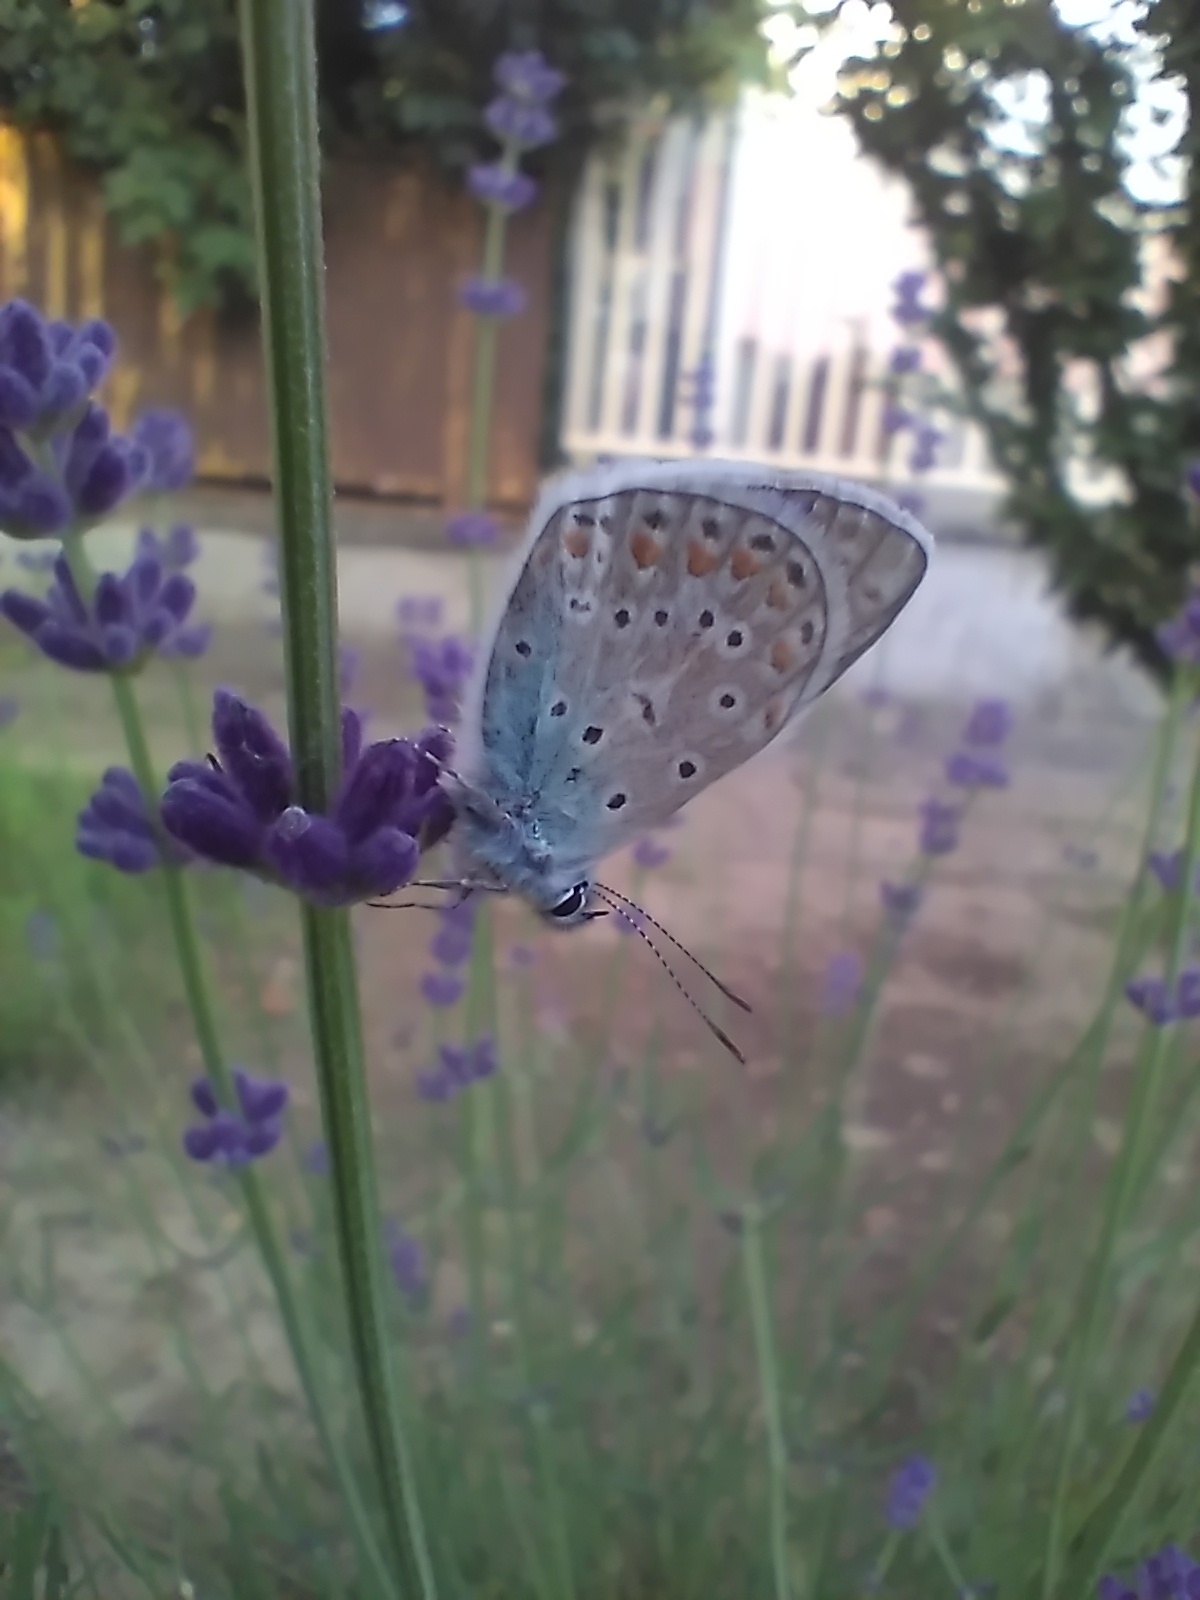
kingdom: Animalia
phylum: Arthropoda
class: Insecta
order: Lepidoptera
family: Lycaenidae
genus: Polyommatus
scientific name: Polyommatus icarus
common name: Common blue
